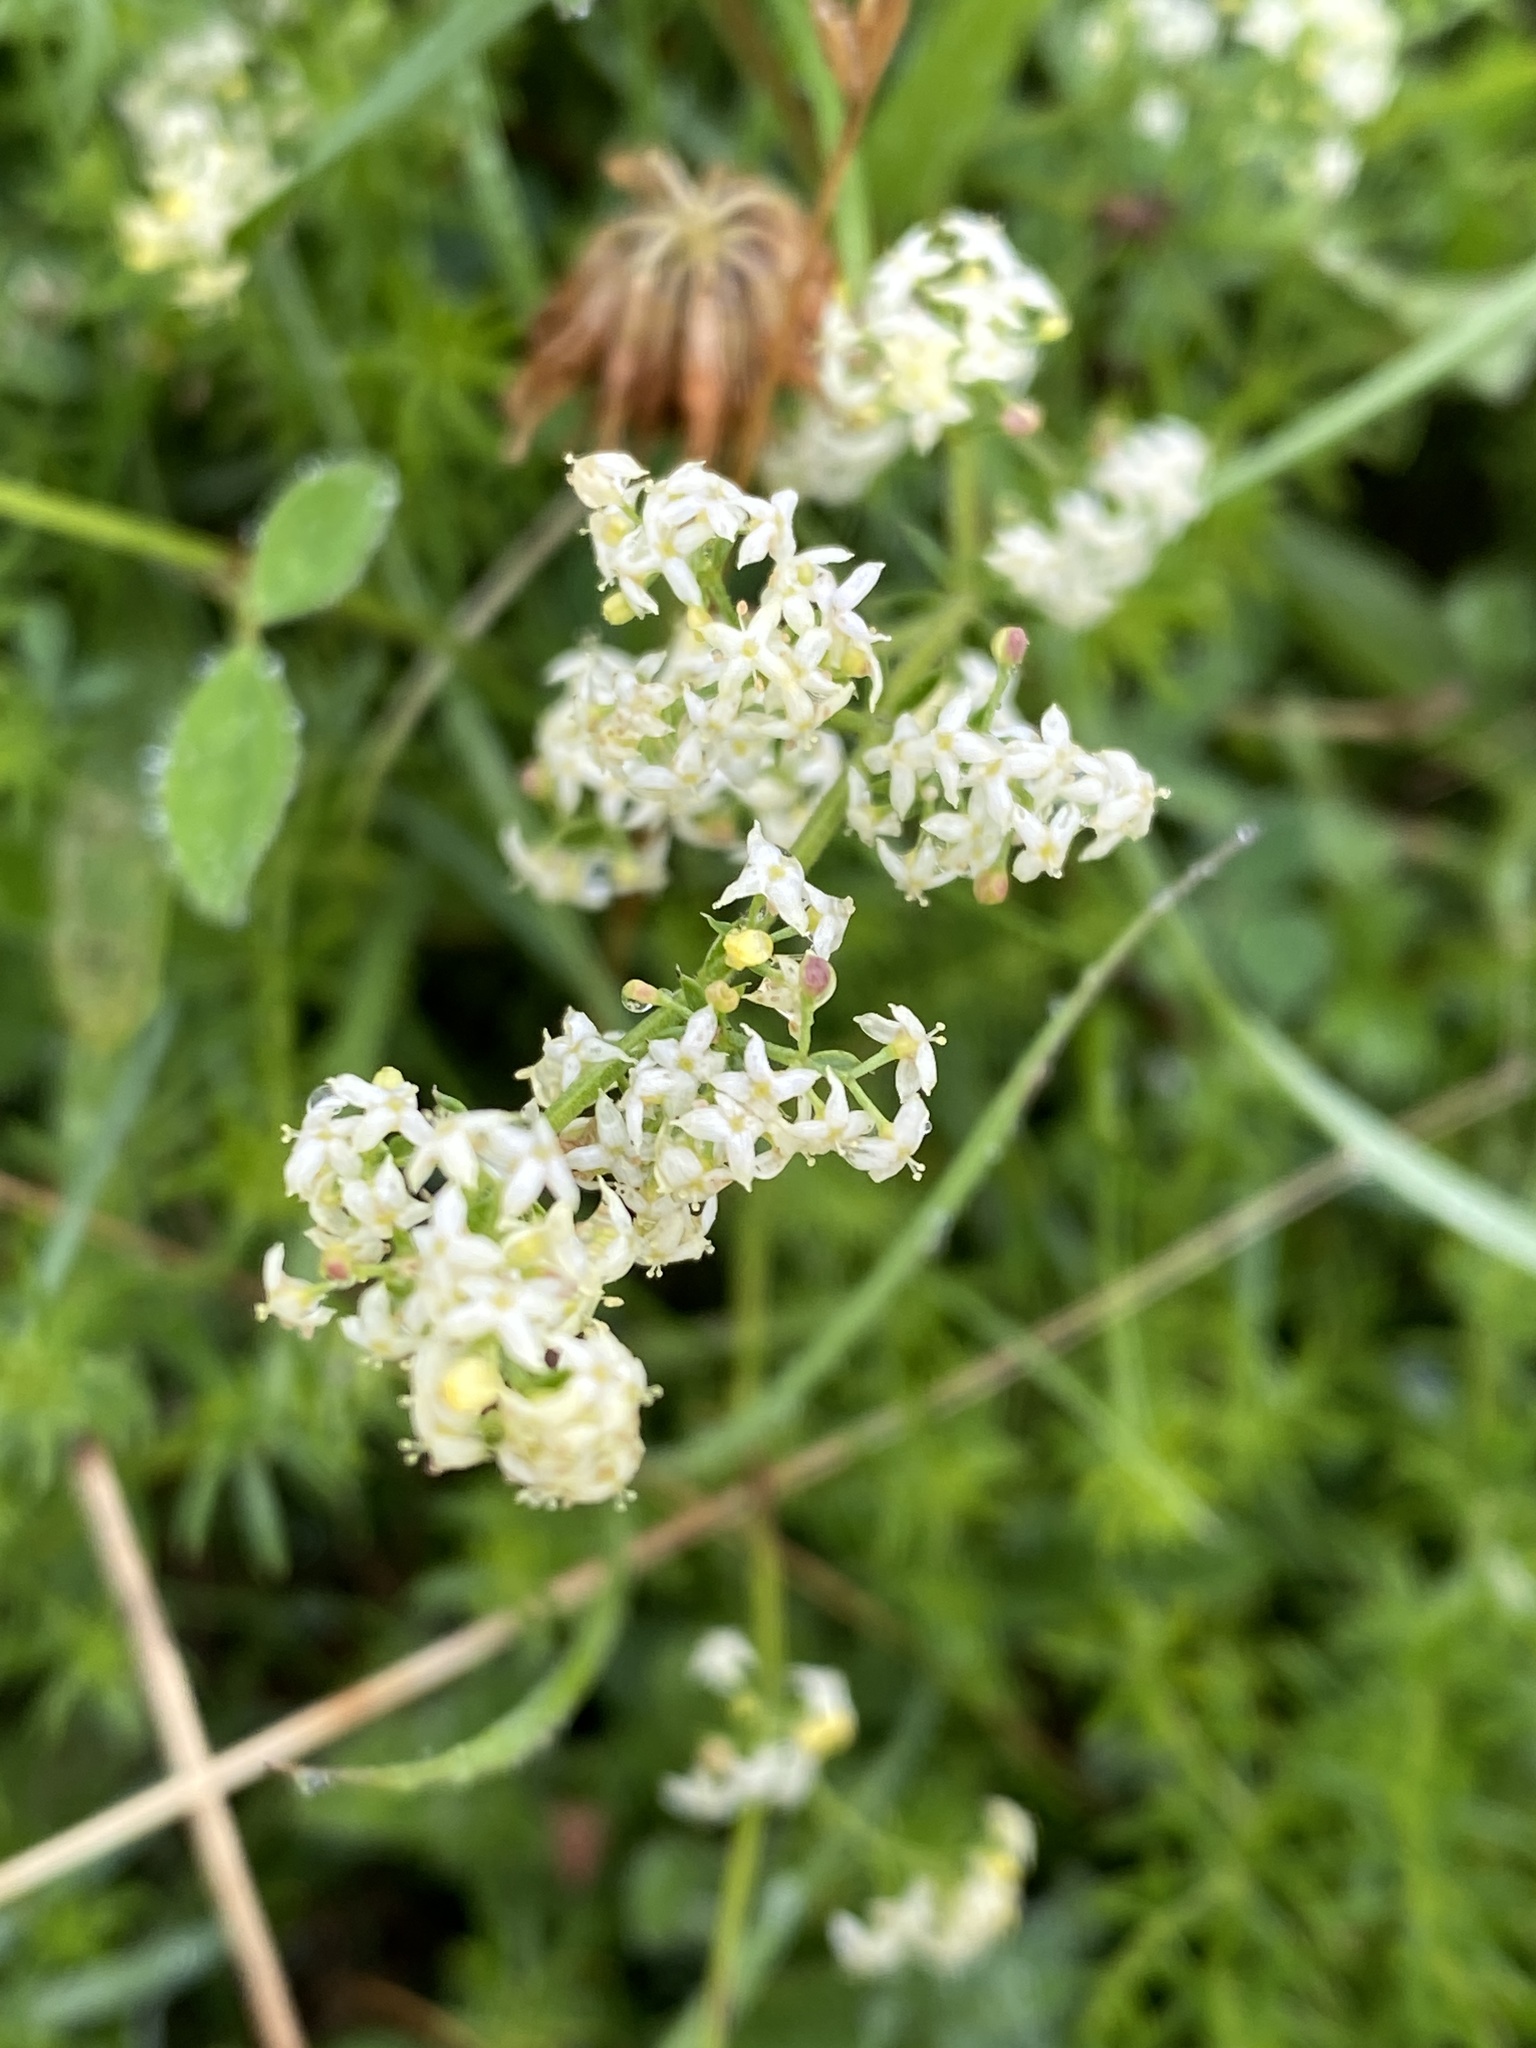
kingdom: Plantae
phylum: Tracheophyta
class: Magnoliopsida
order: Gentianales
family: Rubiaceae
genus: Galium
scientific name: Galium album
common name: White bedstraw
